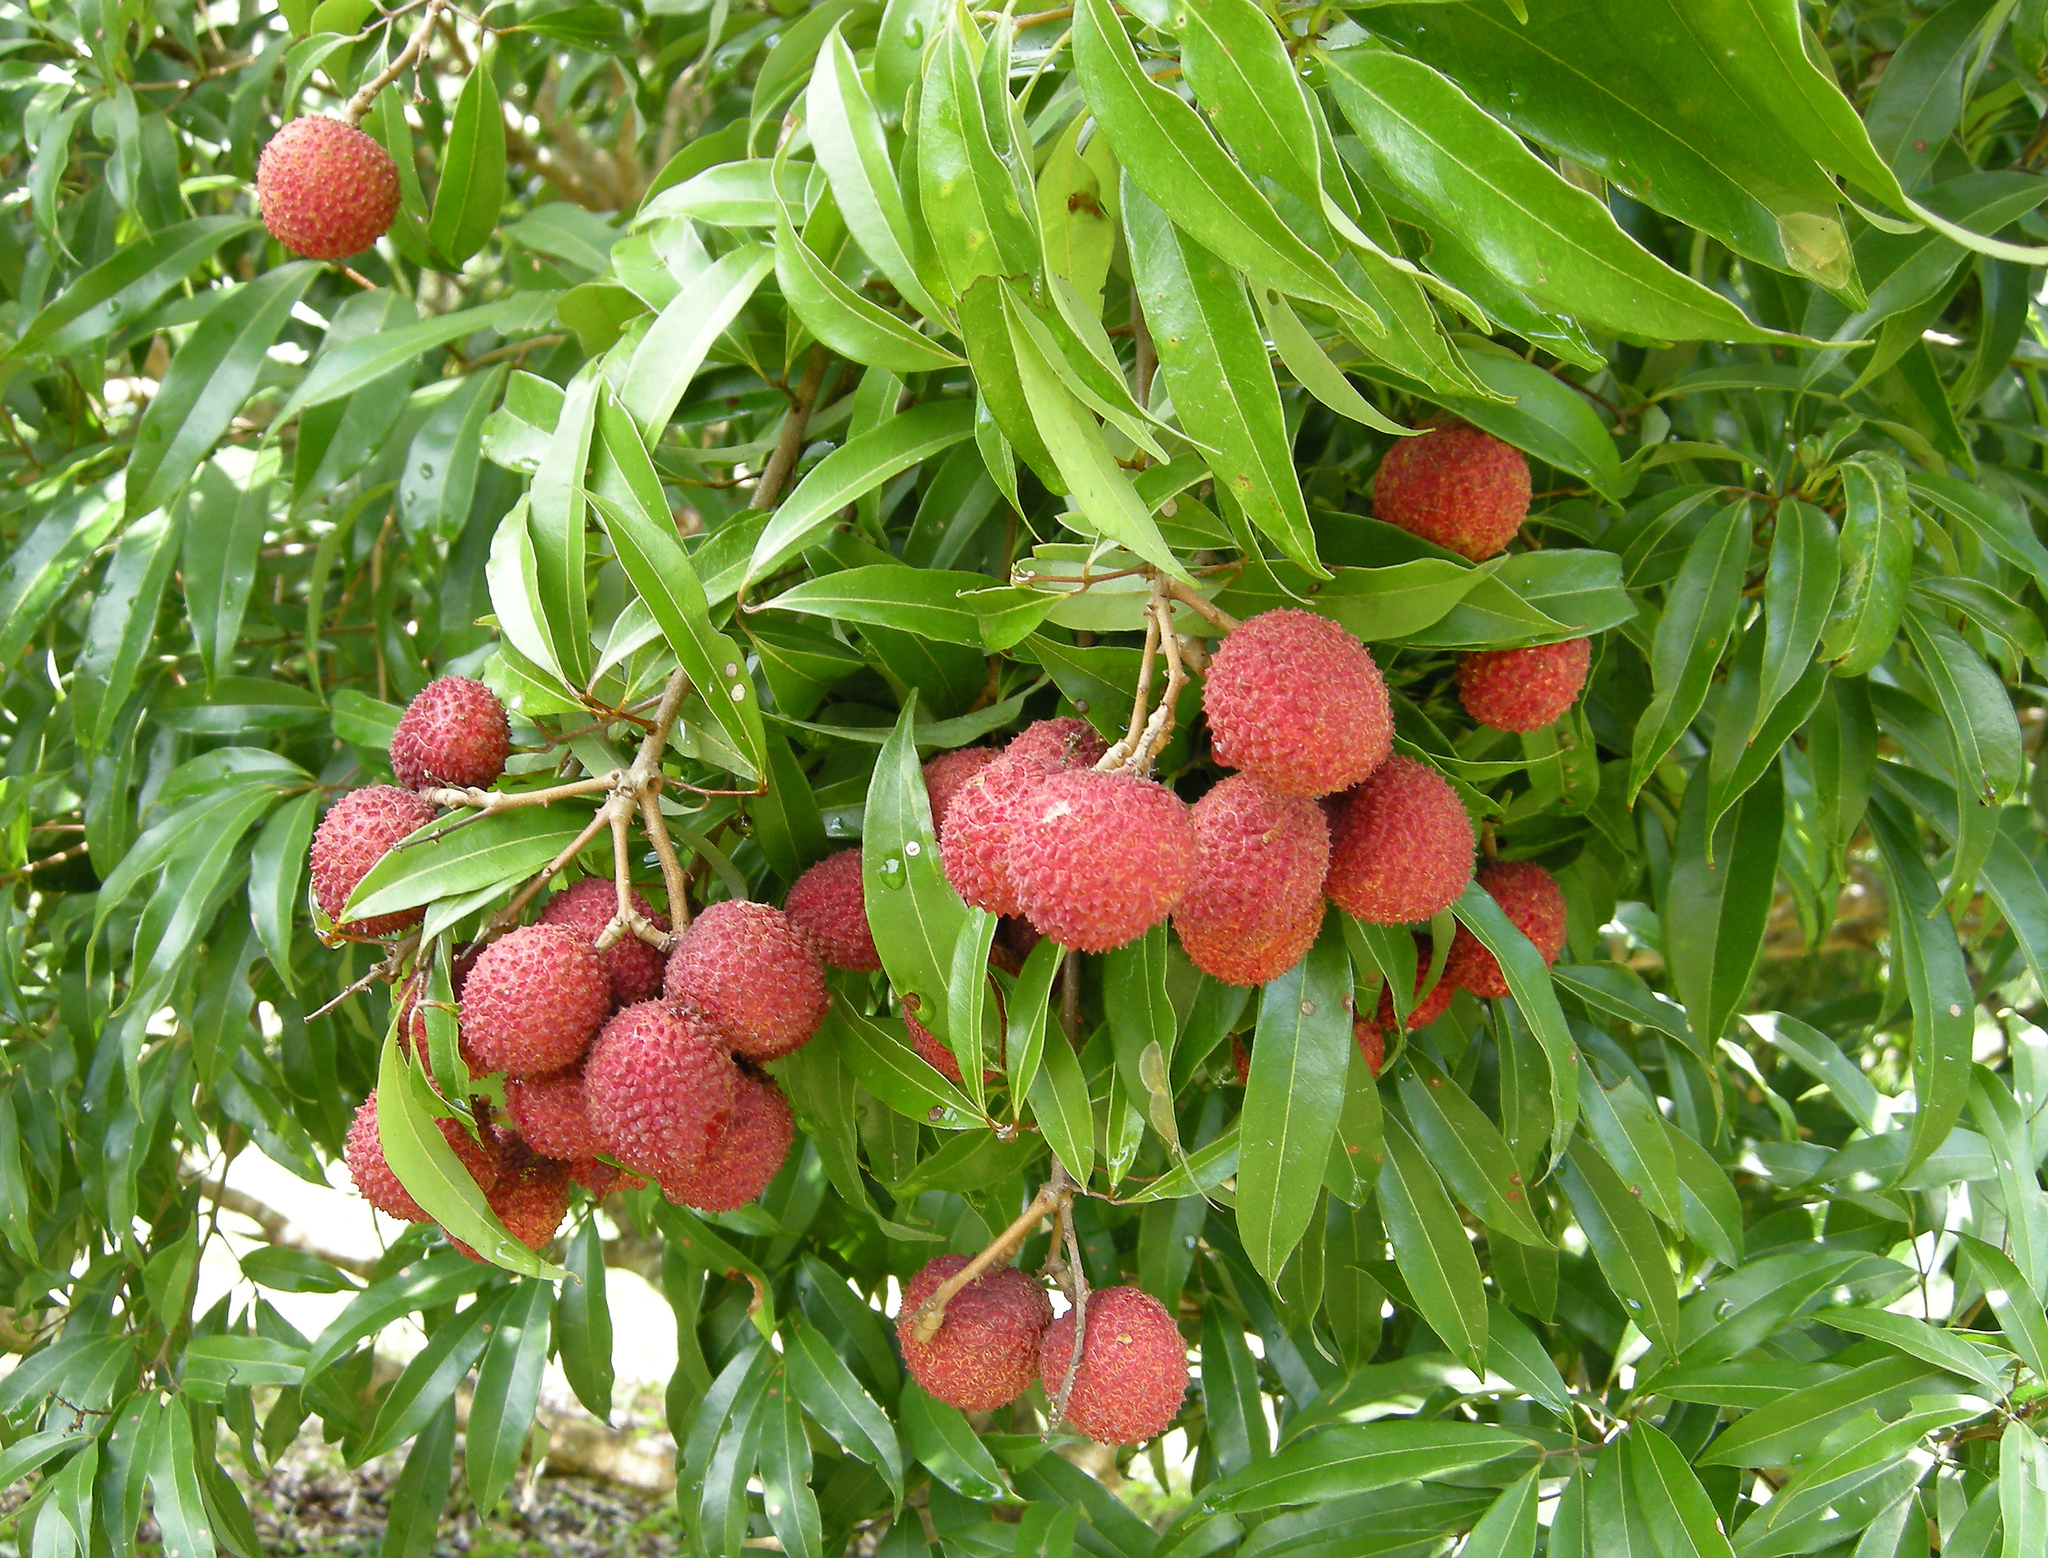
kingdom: Plantae
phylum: Tracheophyta
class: Magnoliopsida
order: Sapindales
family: Sapindaceae
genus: Litchi
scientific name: Litchi chinensis
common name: Litchi
